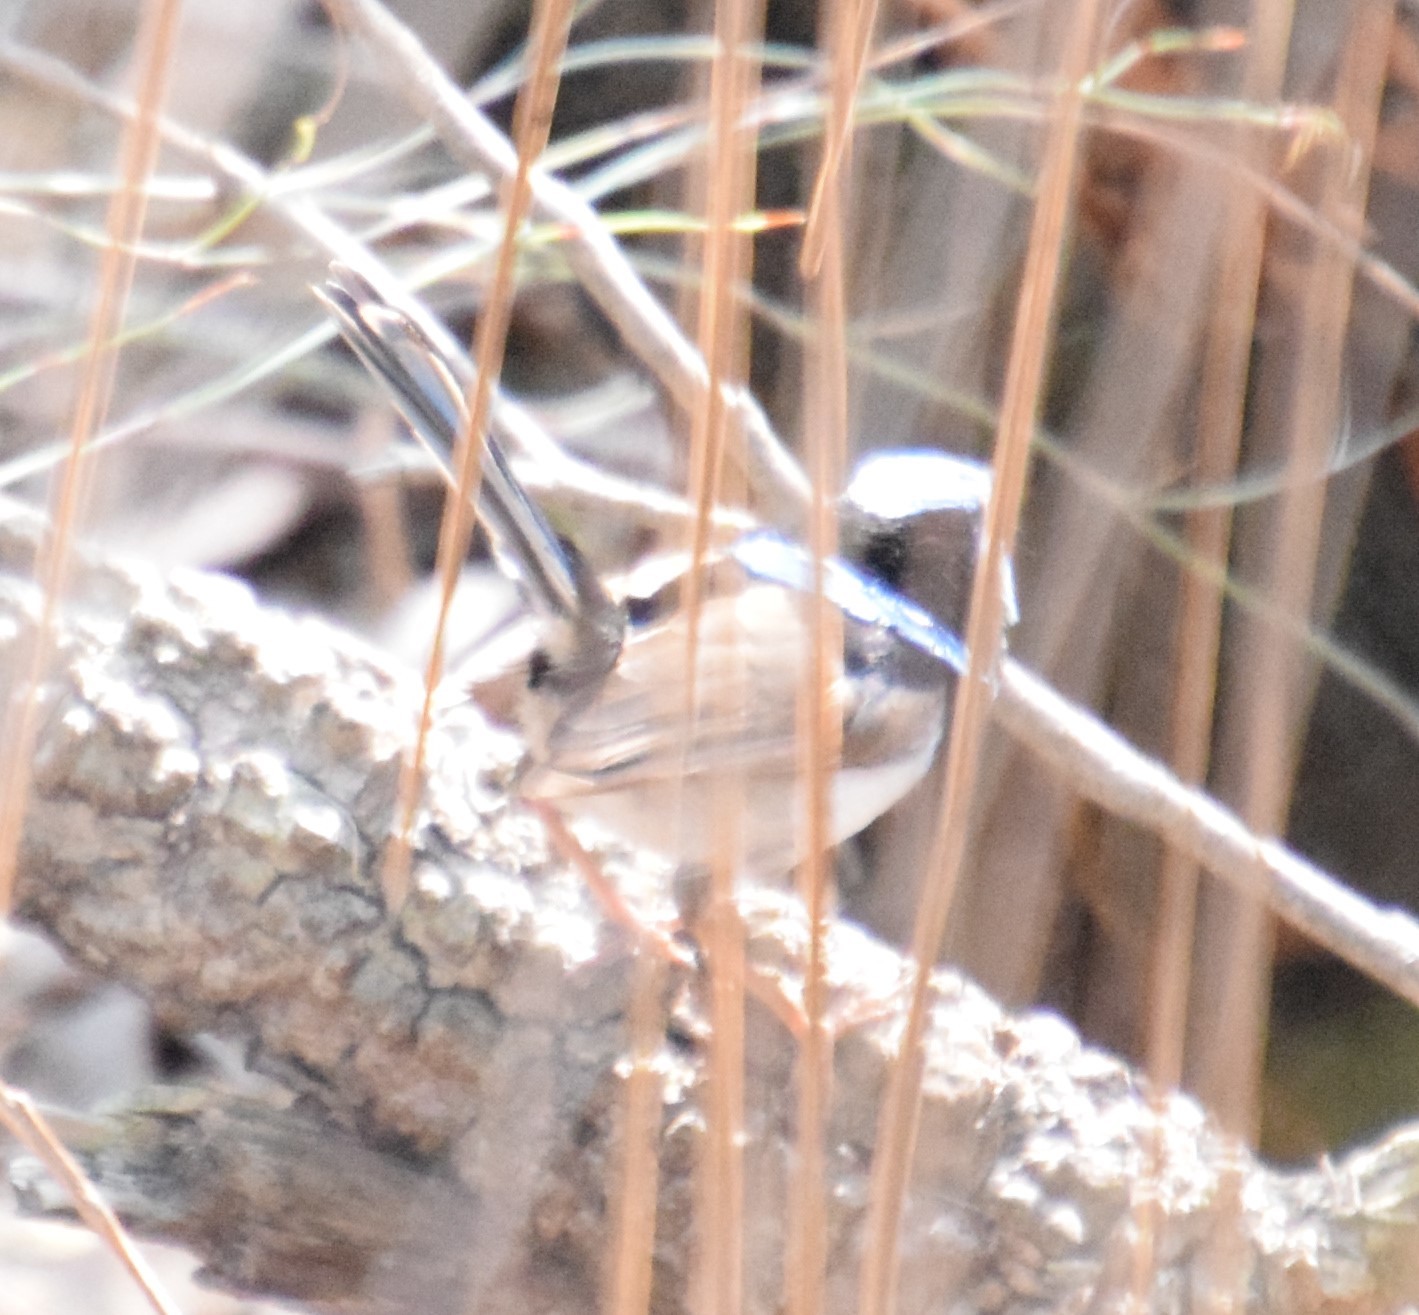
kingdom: Animalia
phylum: Chordata
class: Aves
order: Passeriformes
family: Maluridae
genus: Malurus
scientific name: Malurus cyaneus
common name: Superb fairywren
